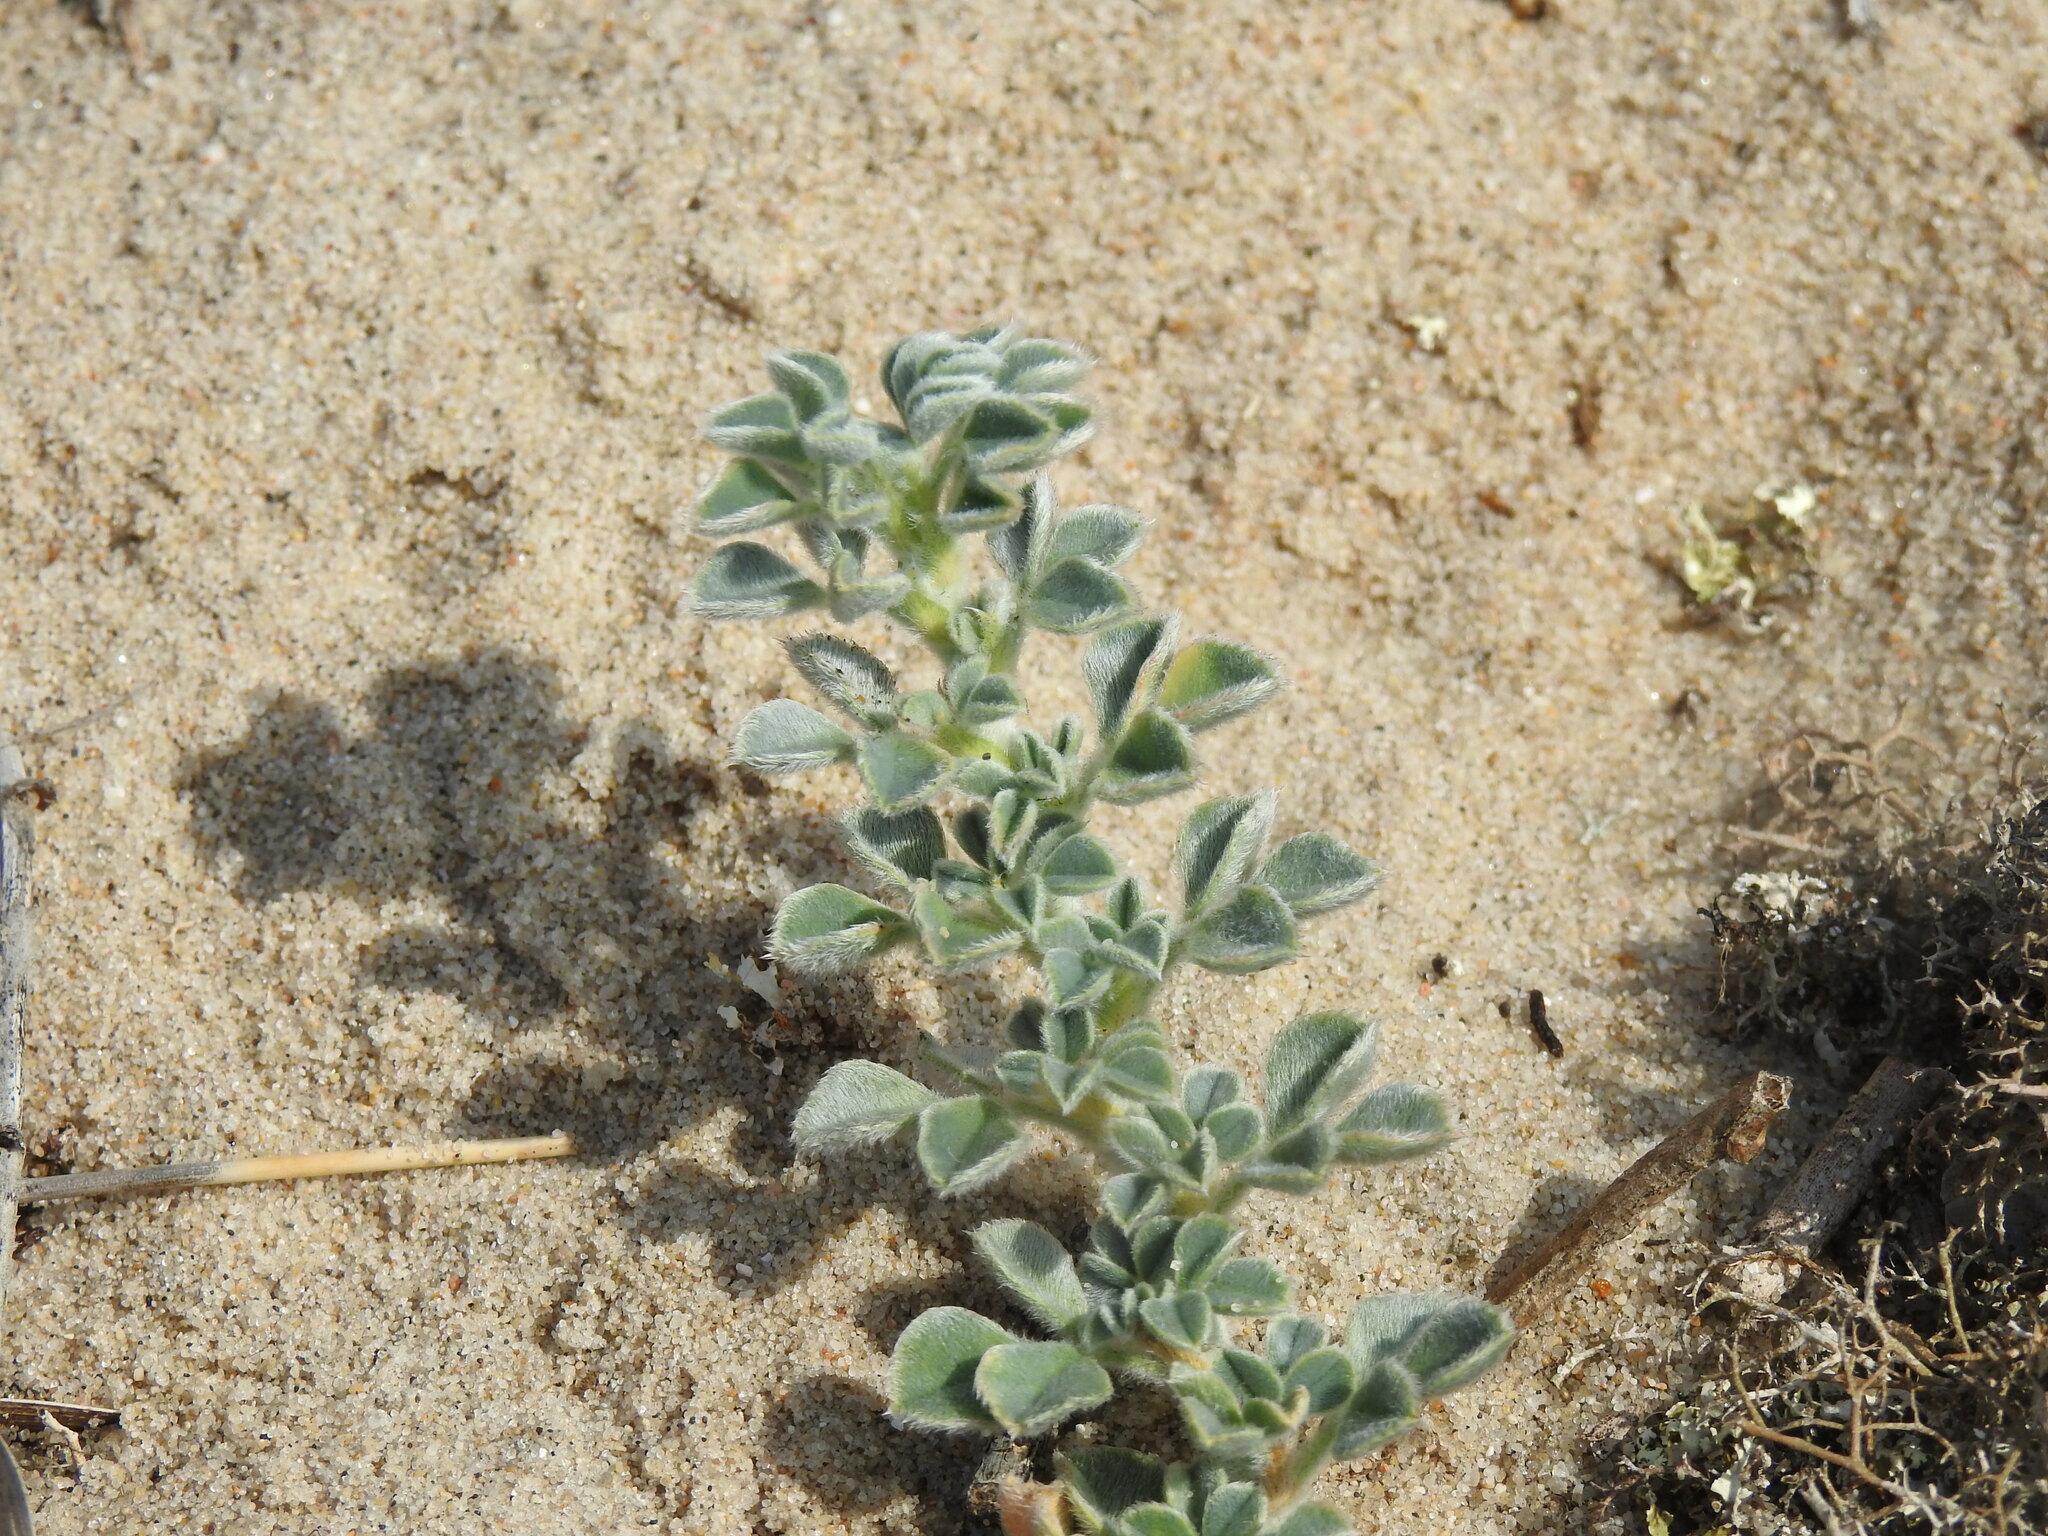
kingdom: Plantae
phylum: Tracheophyta
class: Magnoliopsida
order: Fabales
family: Fabaceae
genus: Medicago
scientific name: Medicago marina
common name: Sea medick
